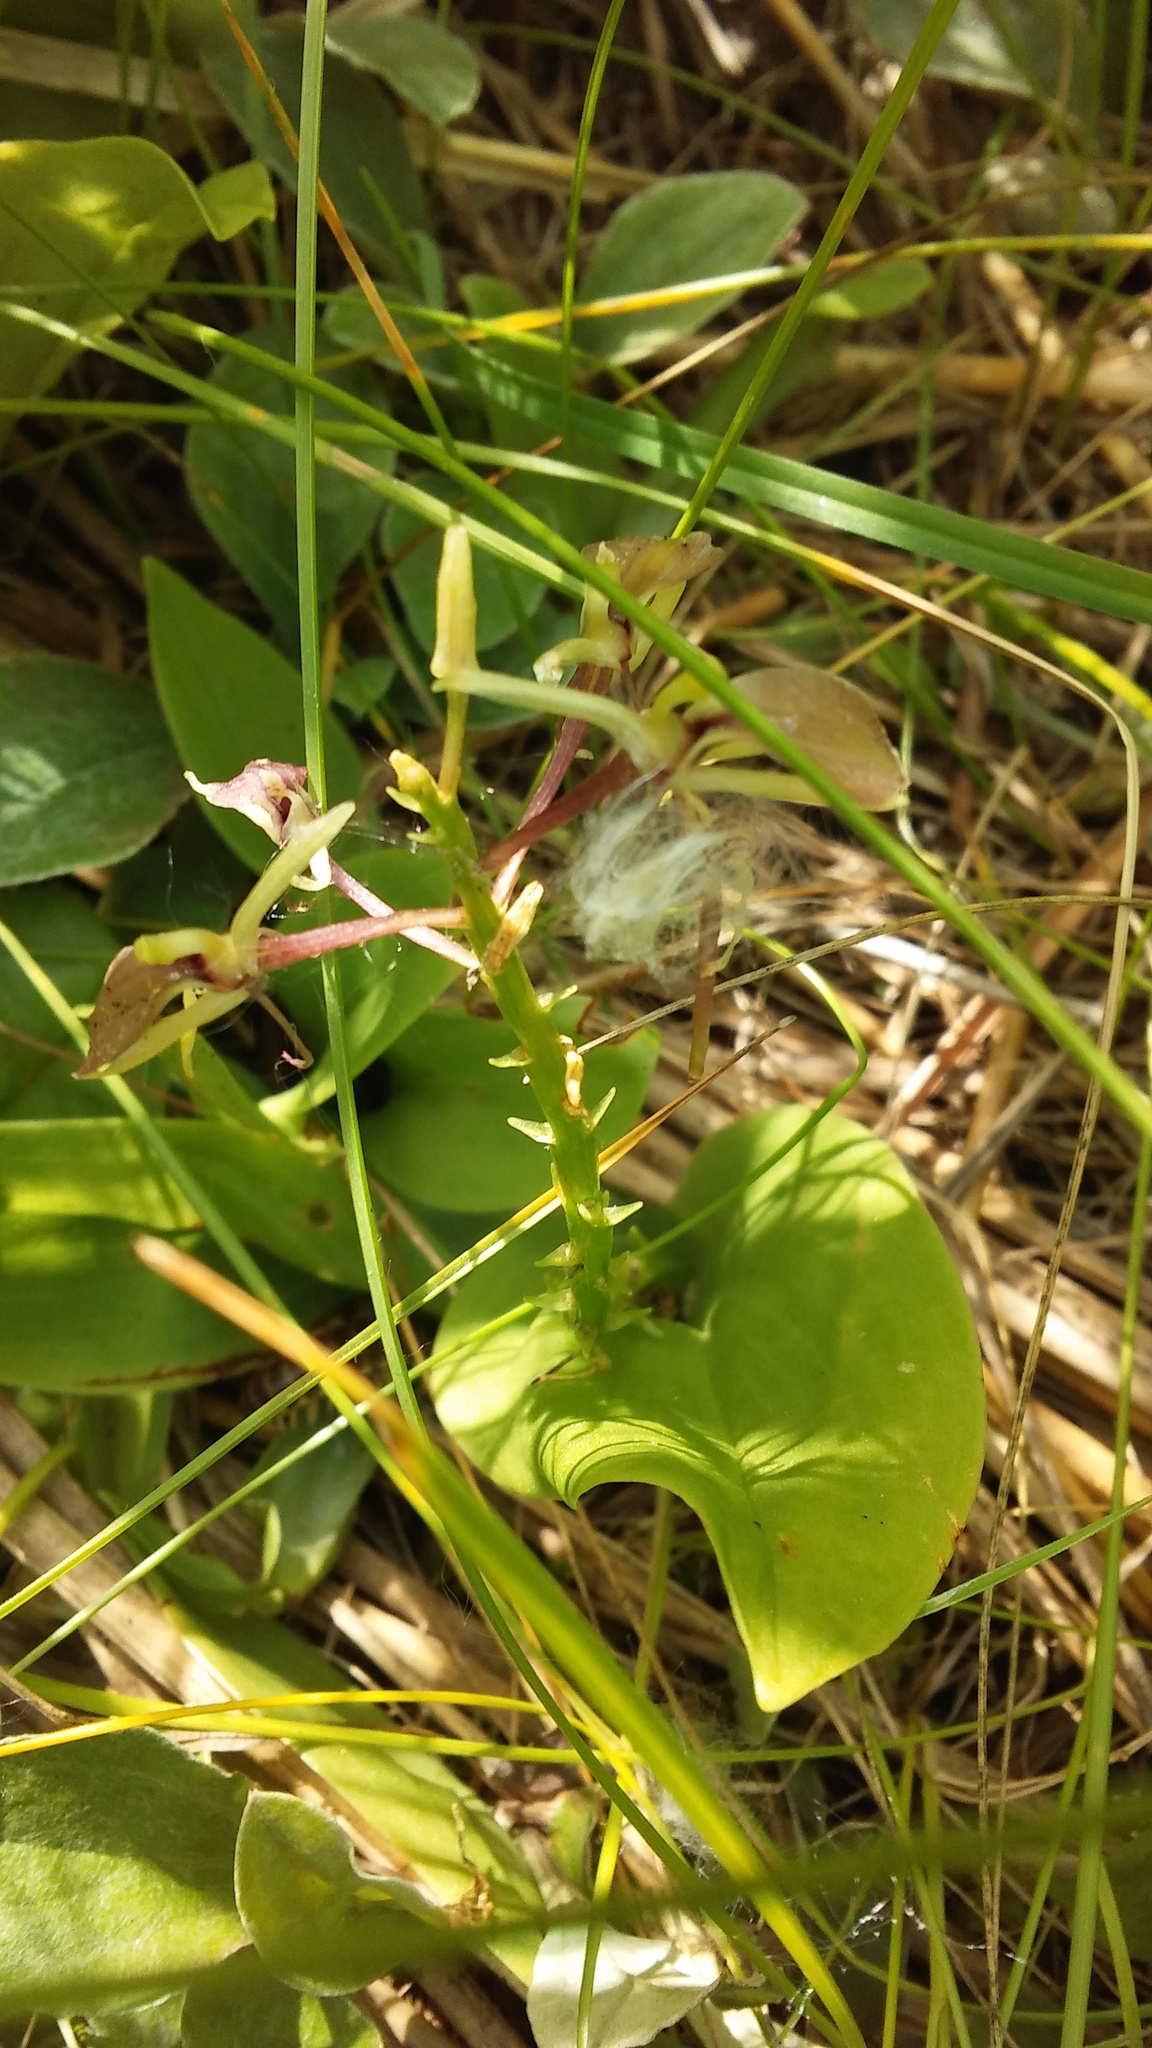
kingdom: Plantae
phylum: Tracheophyta
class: Liliopsida
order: Asparagales
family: Orchidaceae
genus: Liparis
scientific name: Liparis liliifolia
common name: Brown wide-lip orchid
